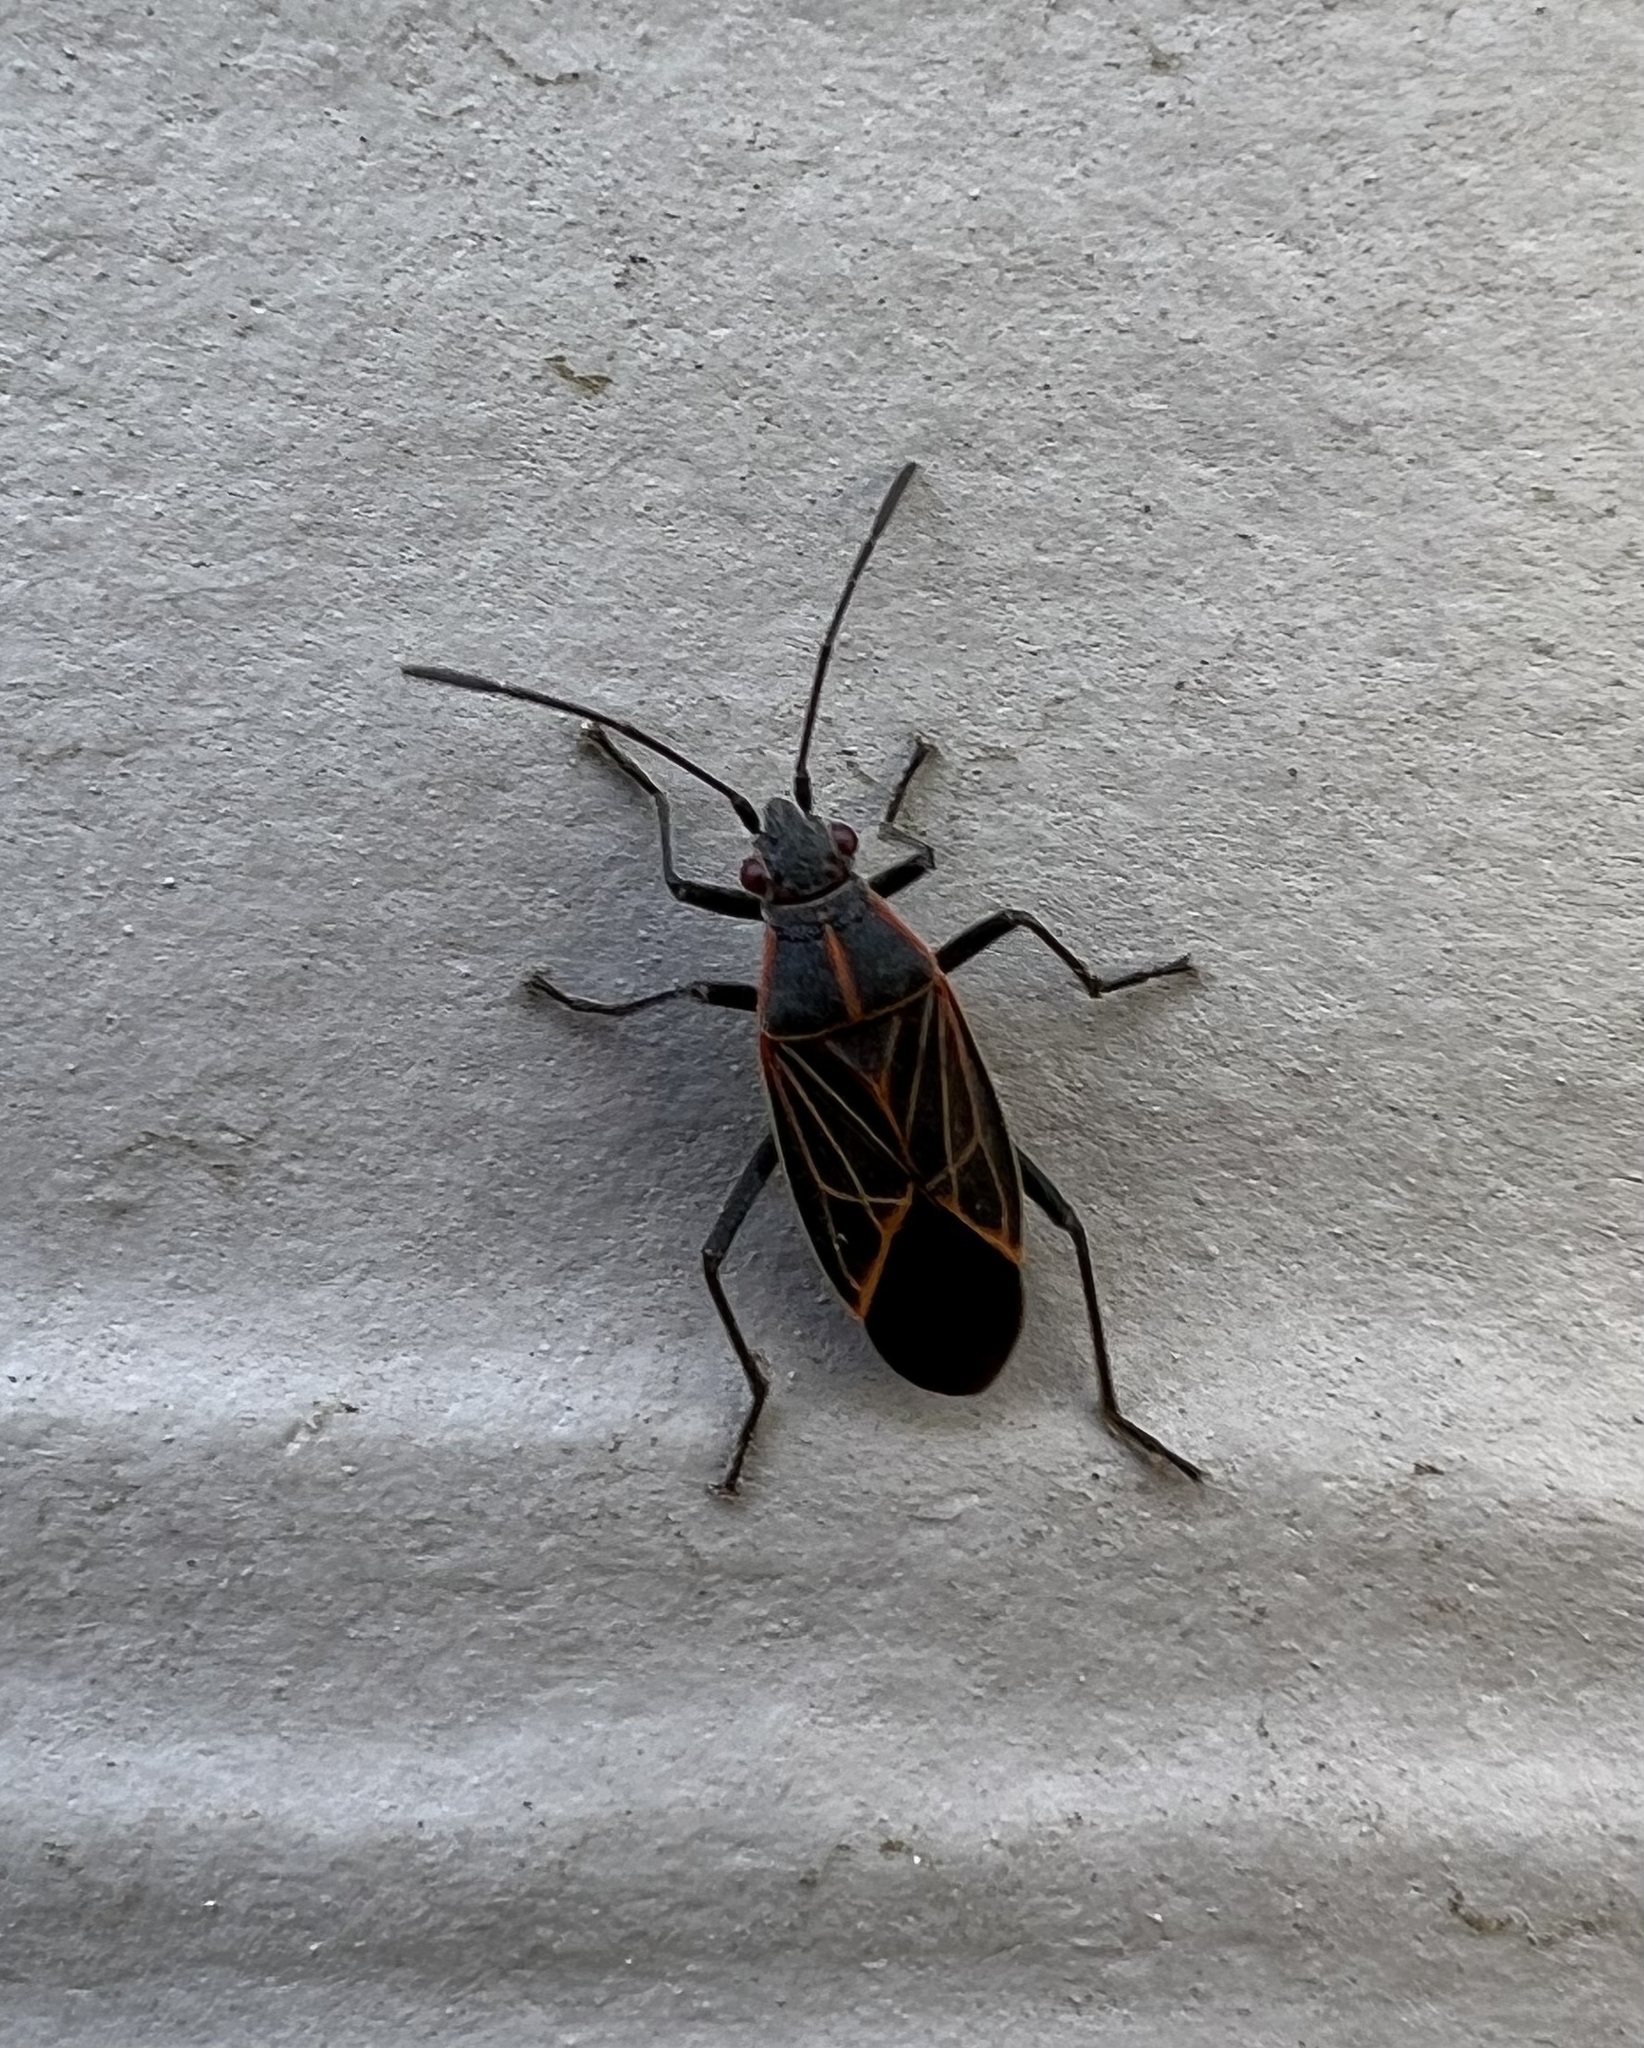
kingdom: Animalia
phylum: Arthropoda
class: Insecta
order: Hemiptera
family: Rhopalidae
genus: Boisea
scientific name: Boisea rubrolineata
